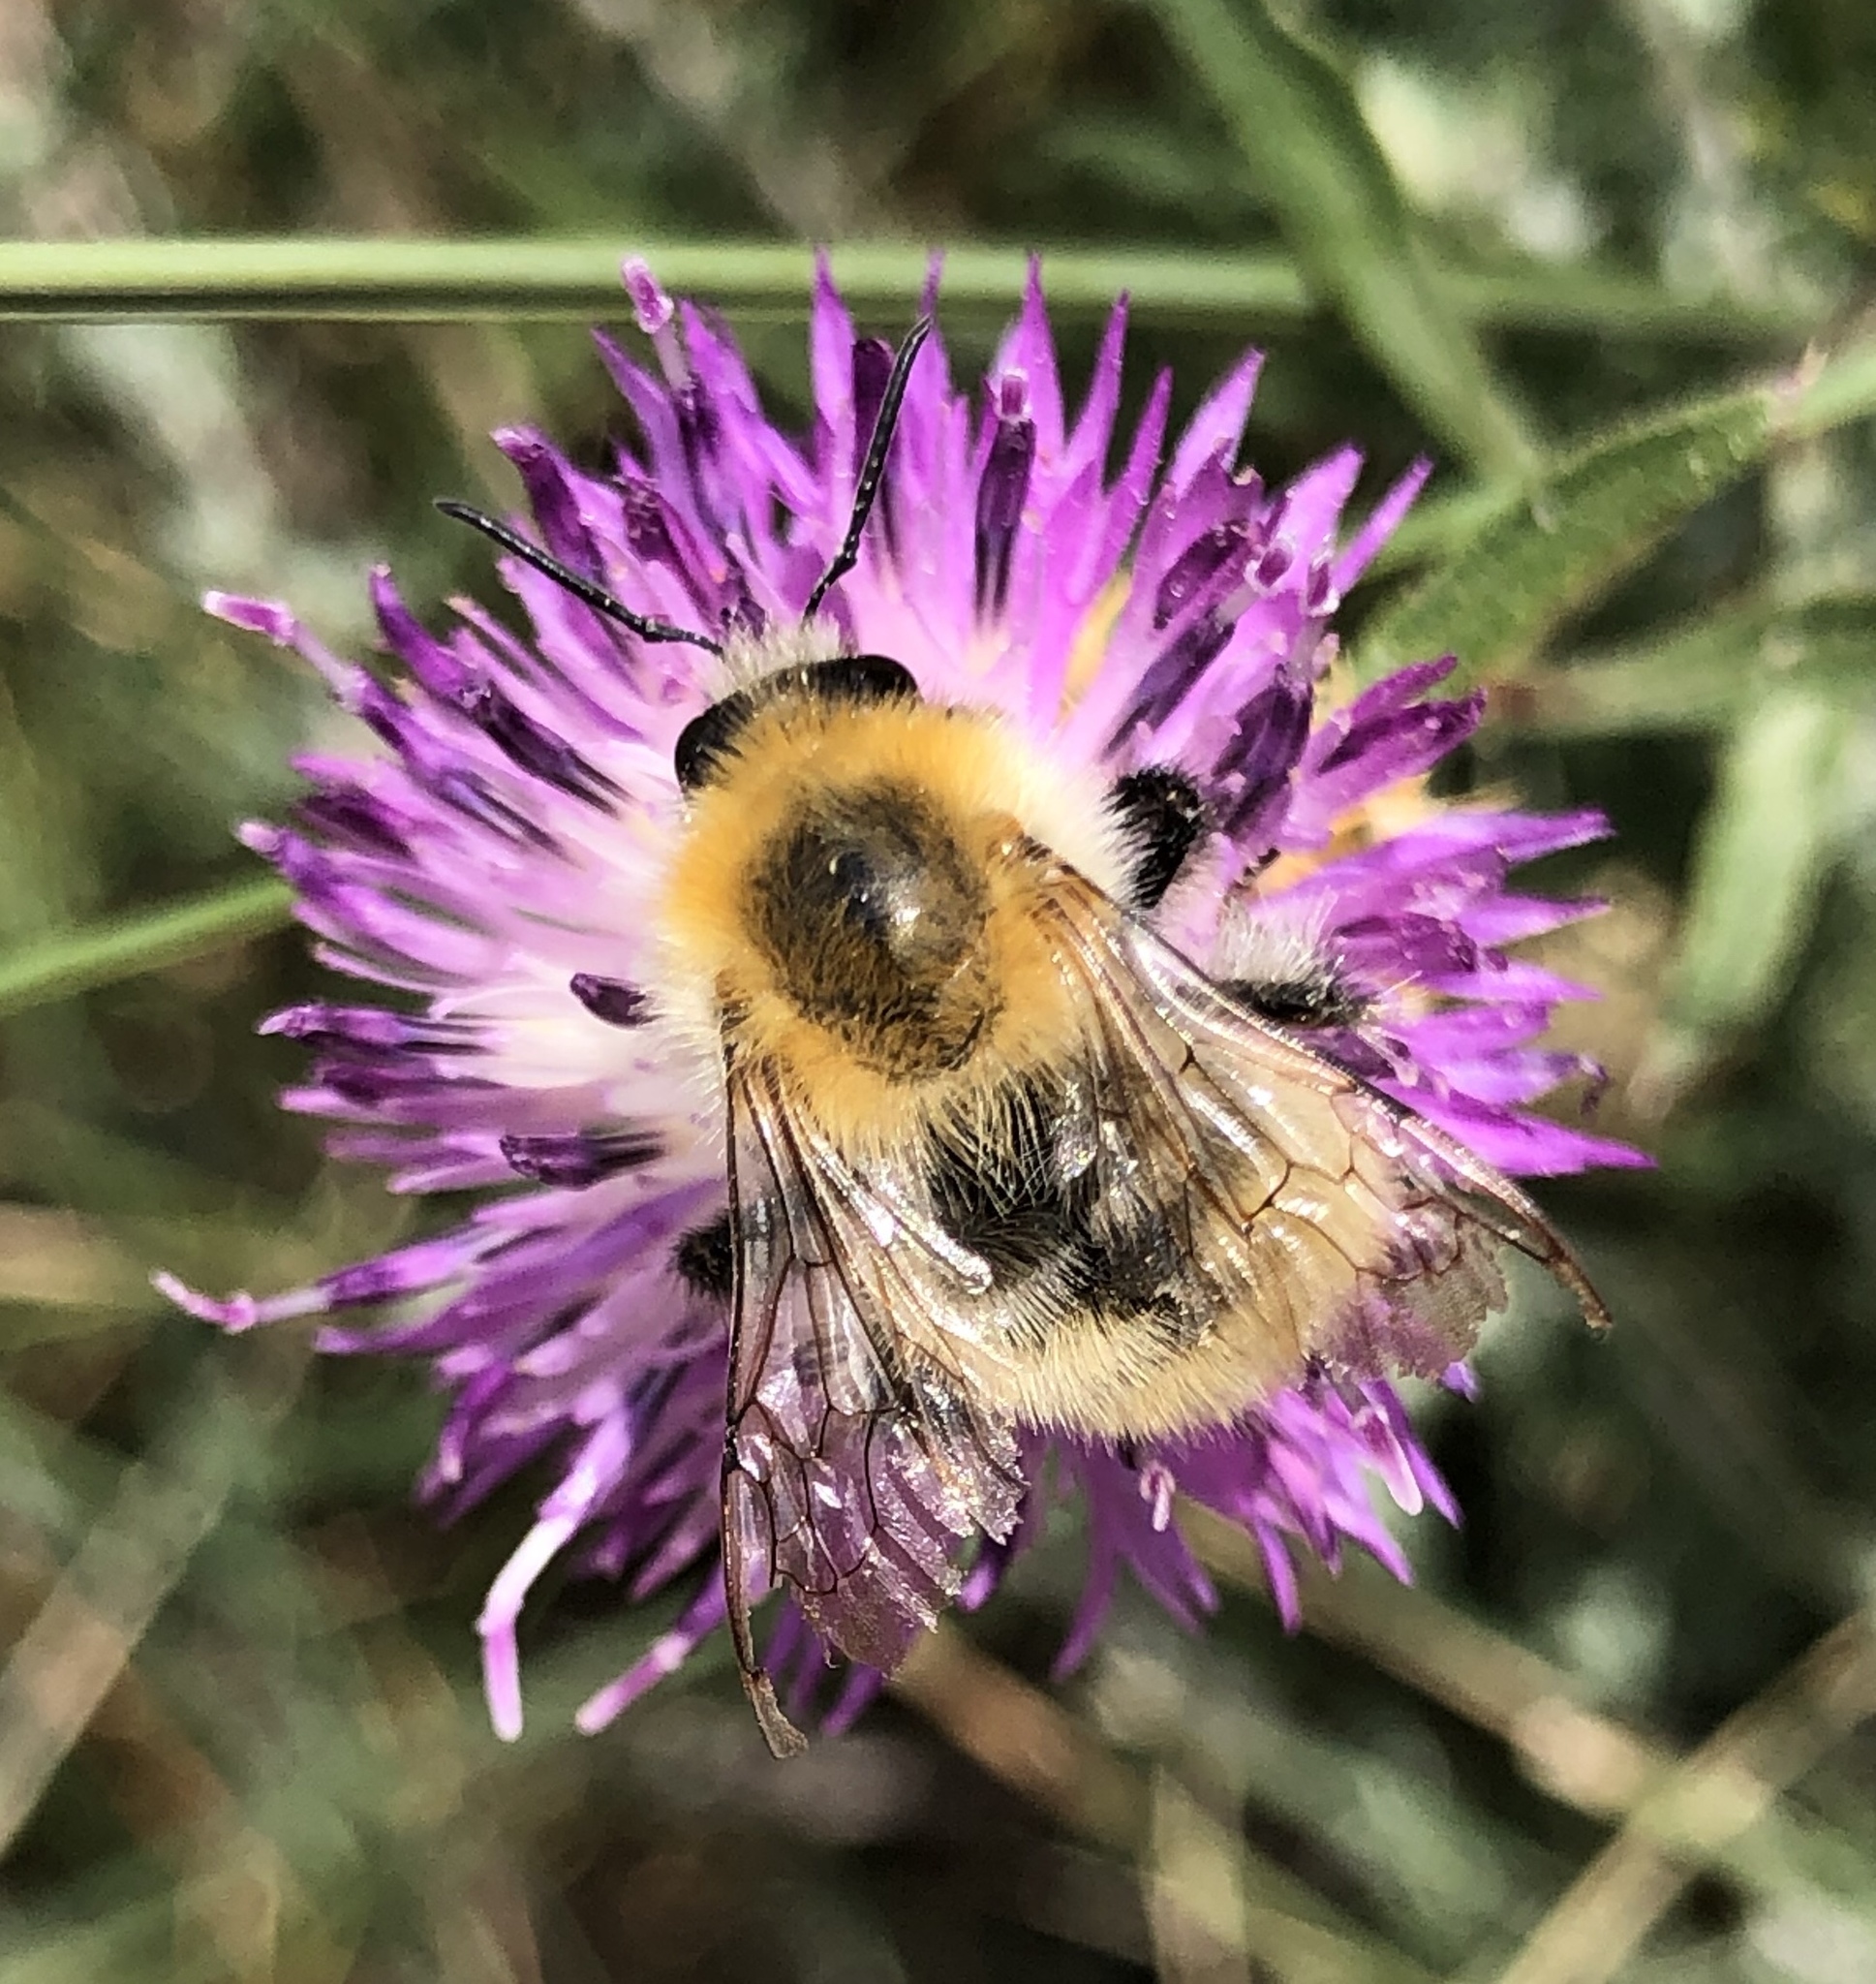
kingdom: Animalia
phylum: Arthropoda
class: Insecta
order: Hymenoptera
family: Apidae
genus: Bombus
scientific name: Bombus pascuorum
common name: Common carder bee
